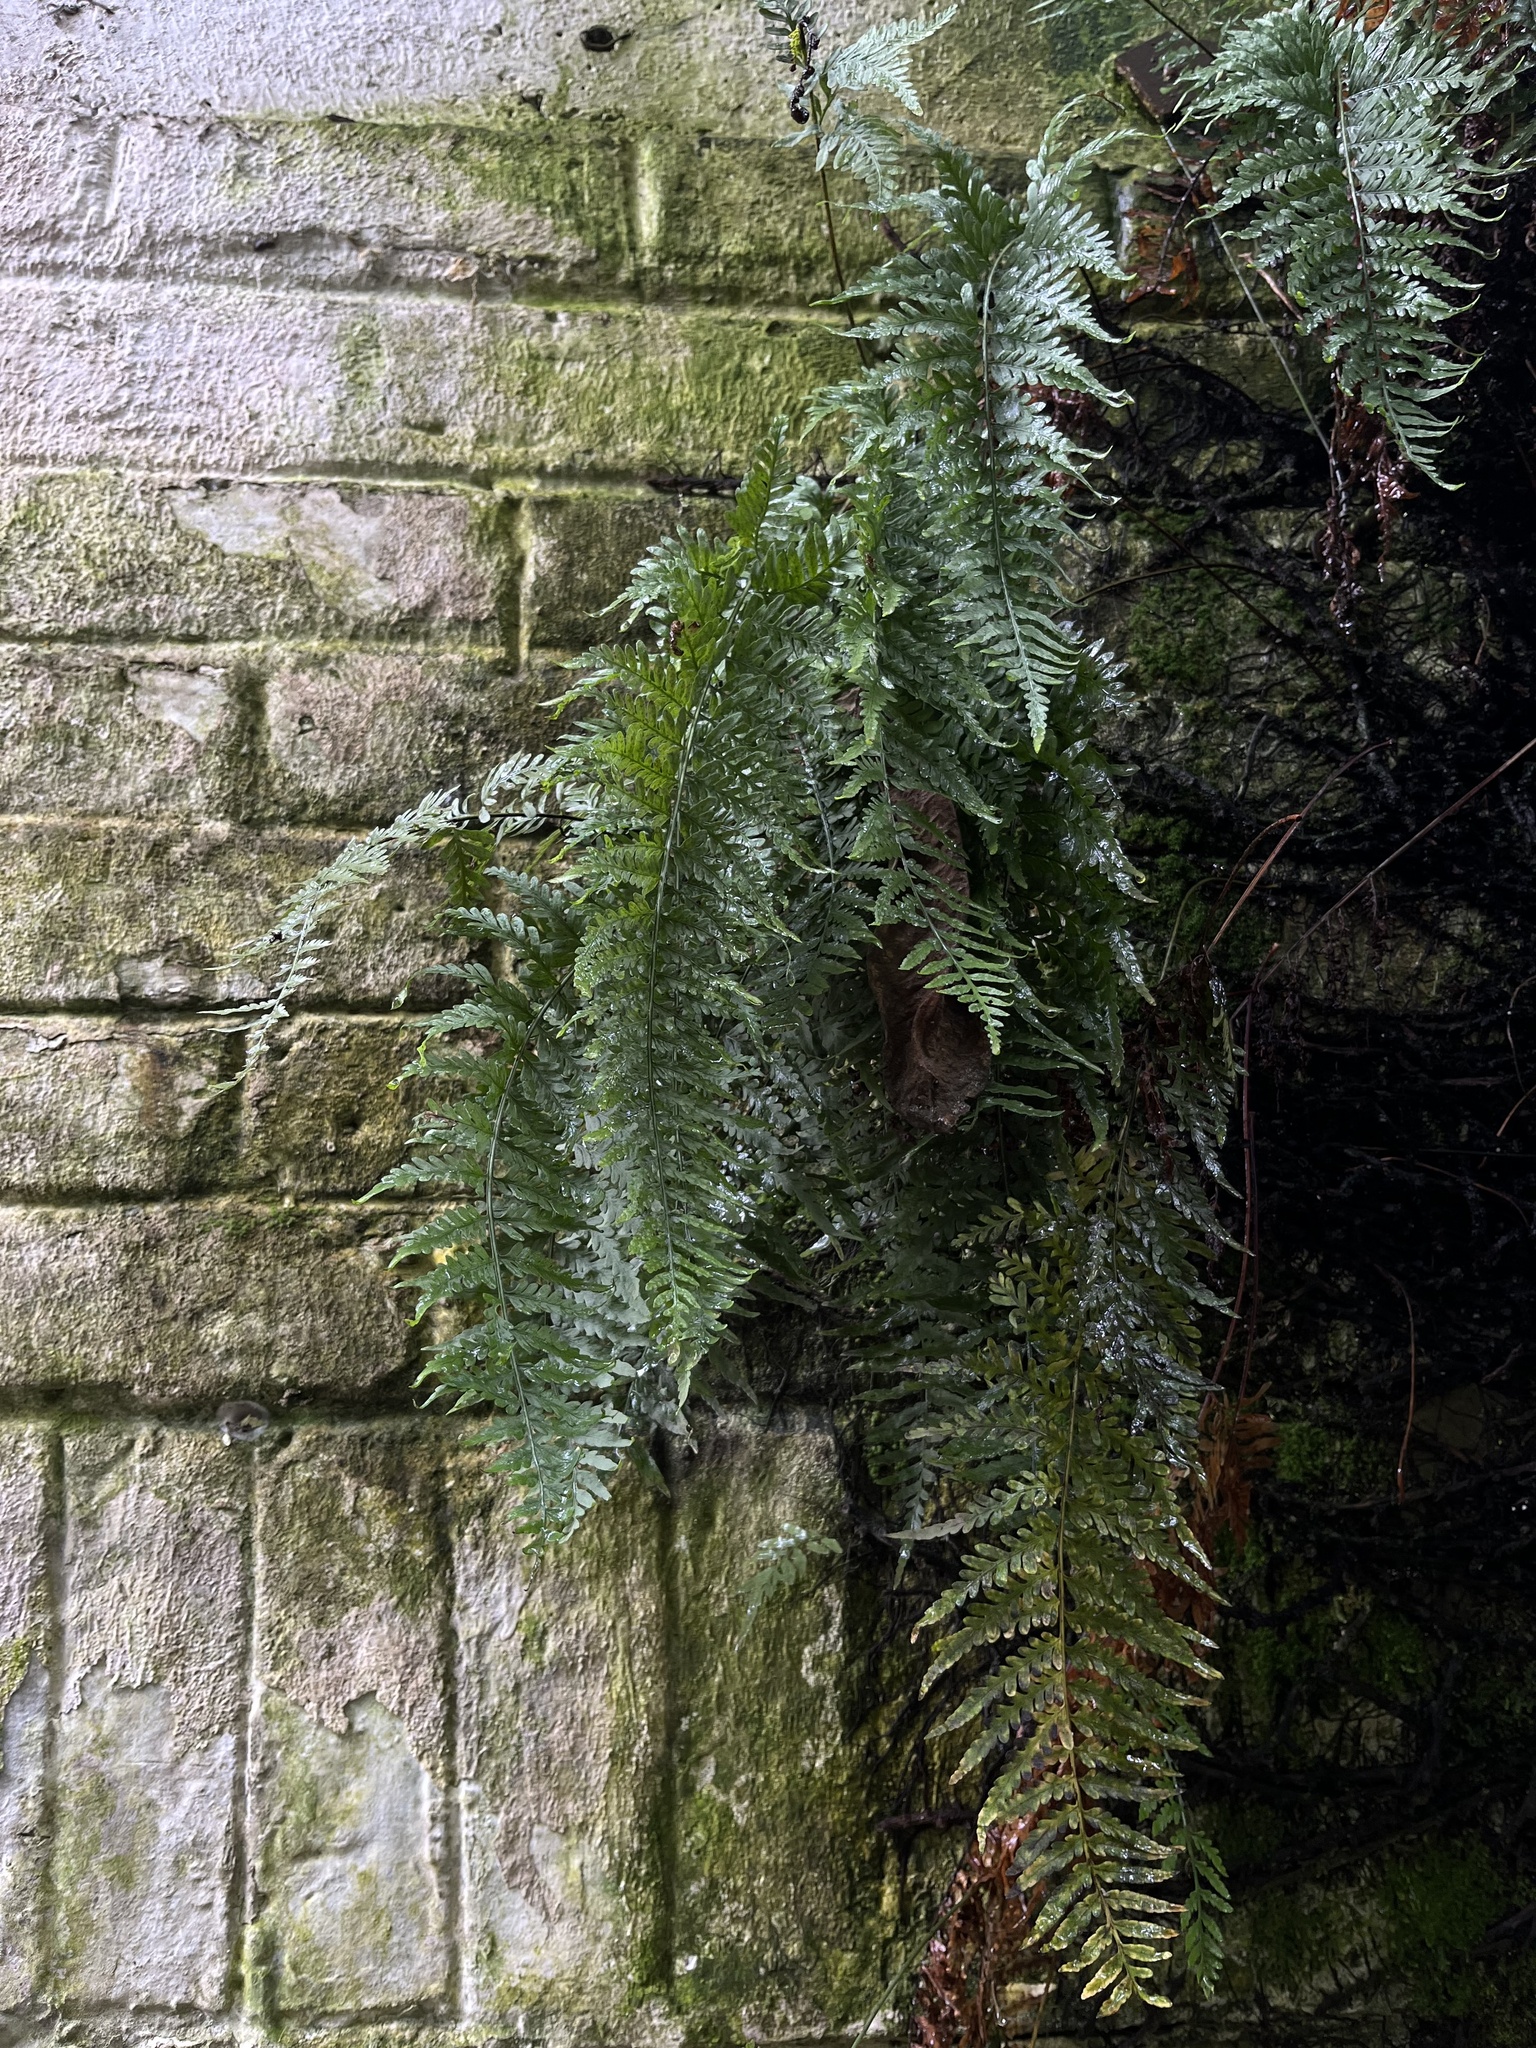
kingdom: Plantae
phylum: Tracheophyta
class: Polypodiopsida
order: Polypodiales
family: Polypodiaceae
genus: Pleopeltis
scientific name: Pleopeltis murora
